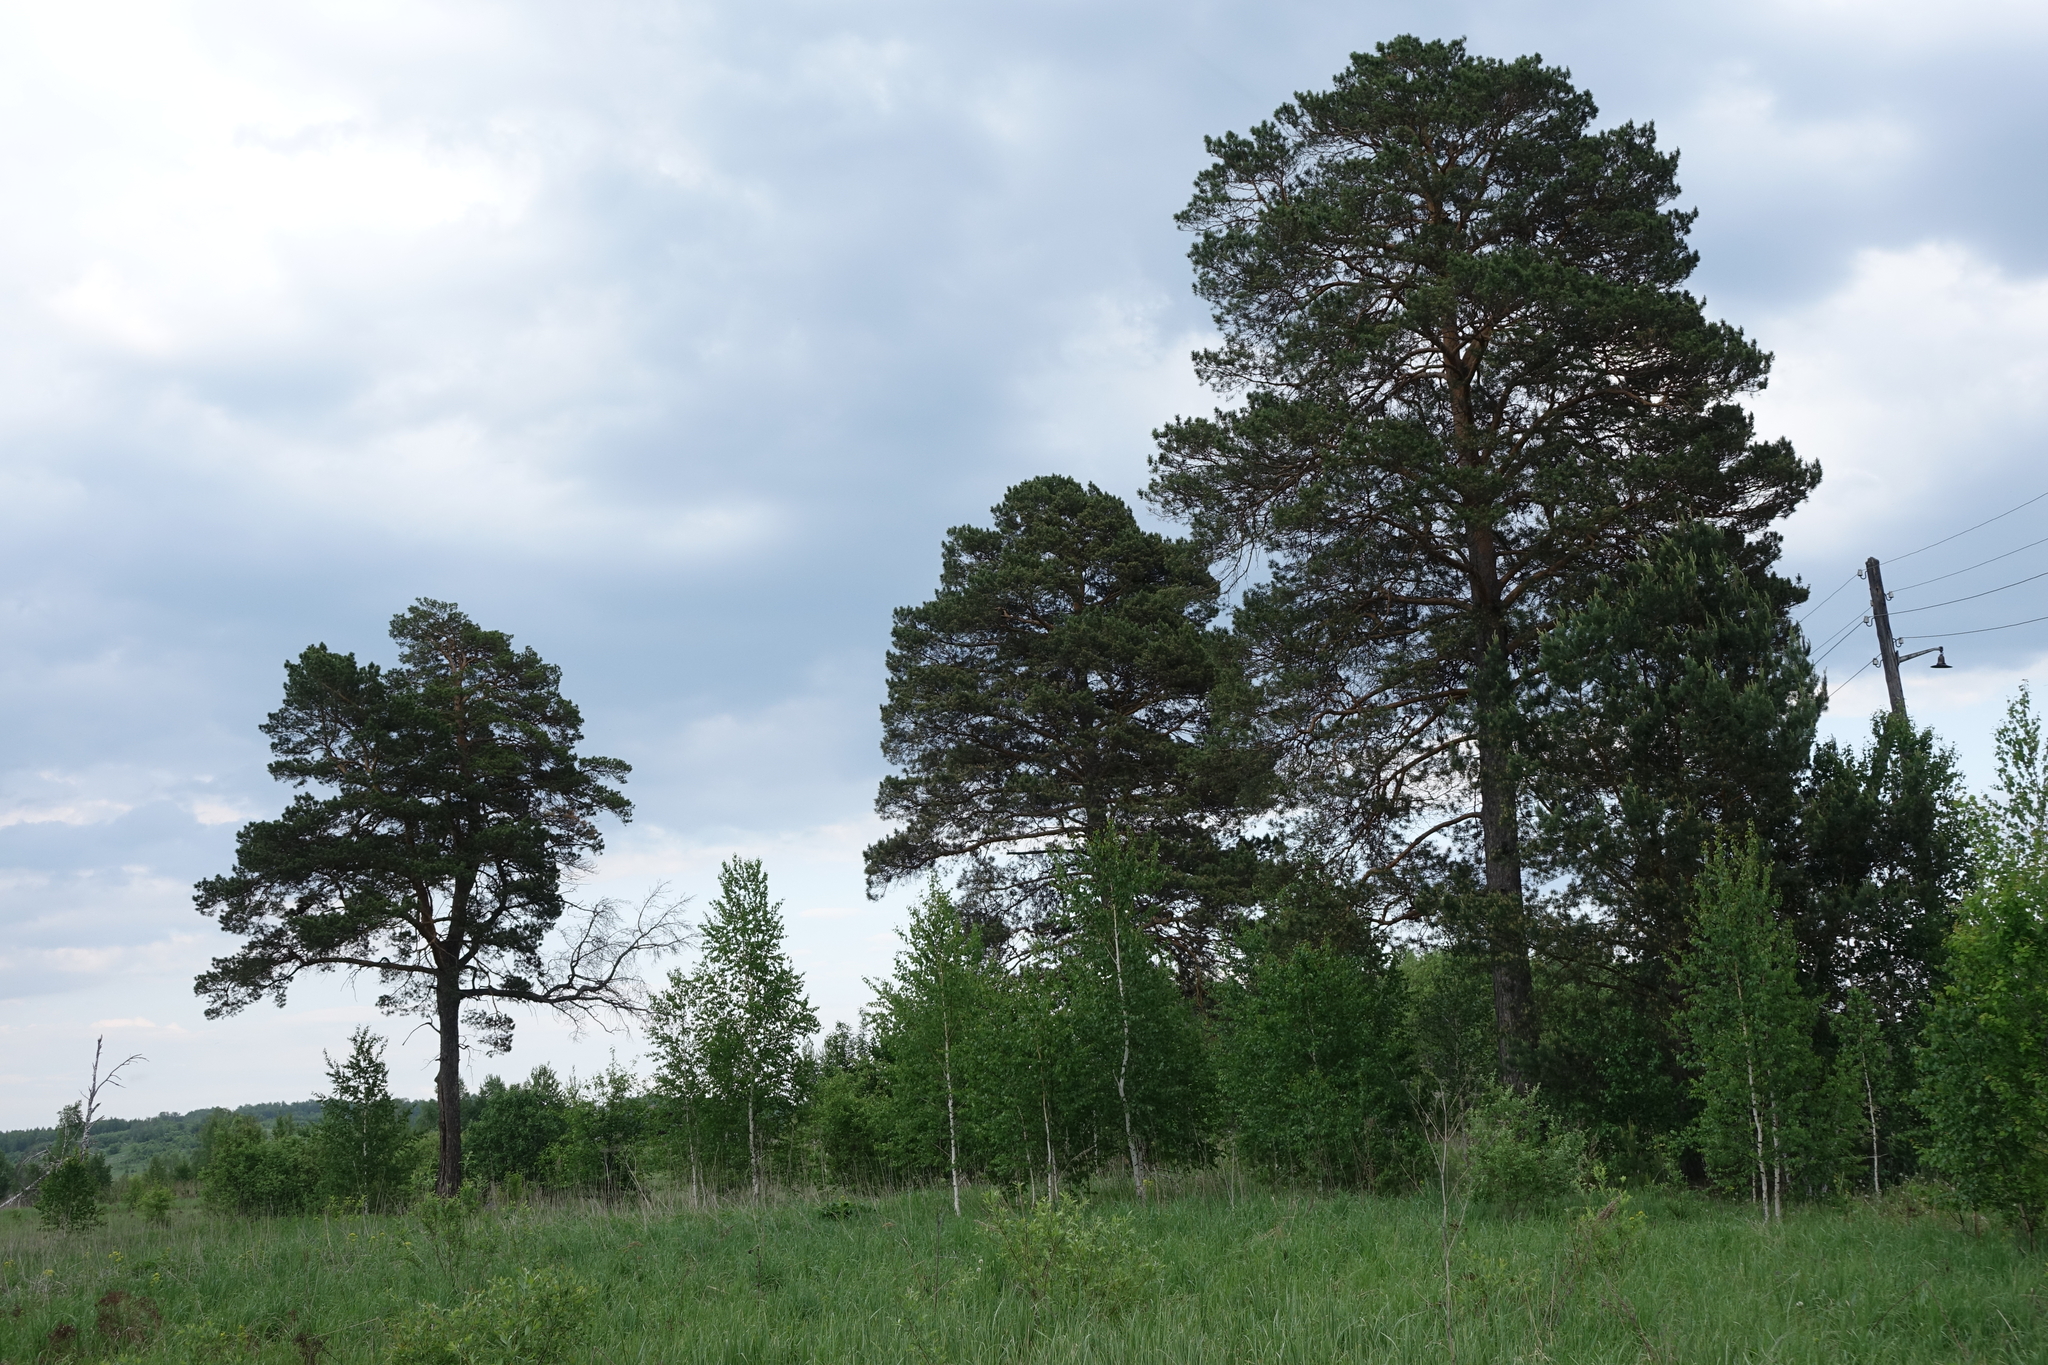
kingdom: Plantae
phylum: Tracheophyta
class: Pinopsida
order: Pinales
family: Pinaceae
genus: Pinus
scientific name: Pinus sylvestris
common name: Scots pine
